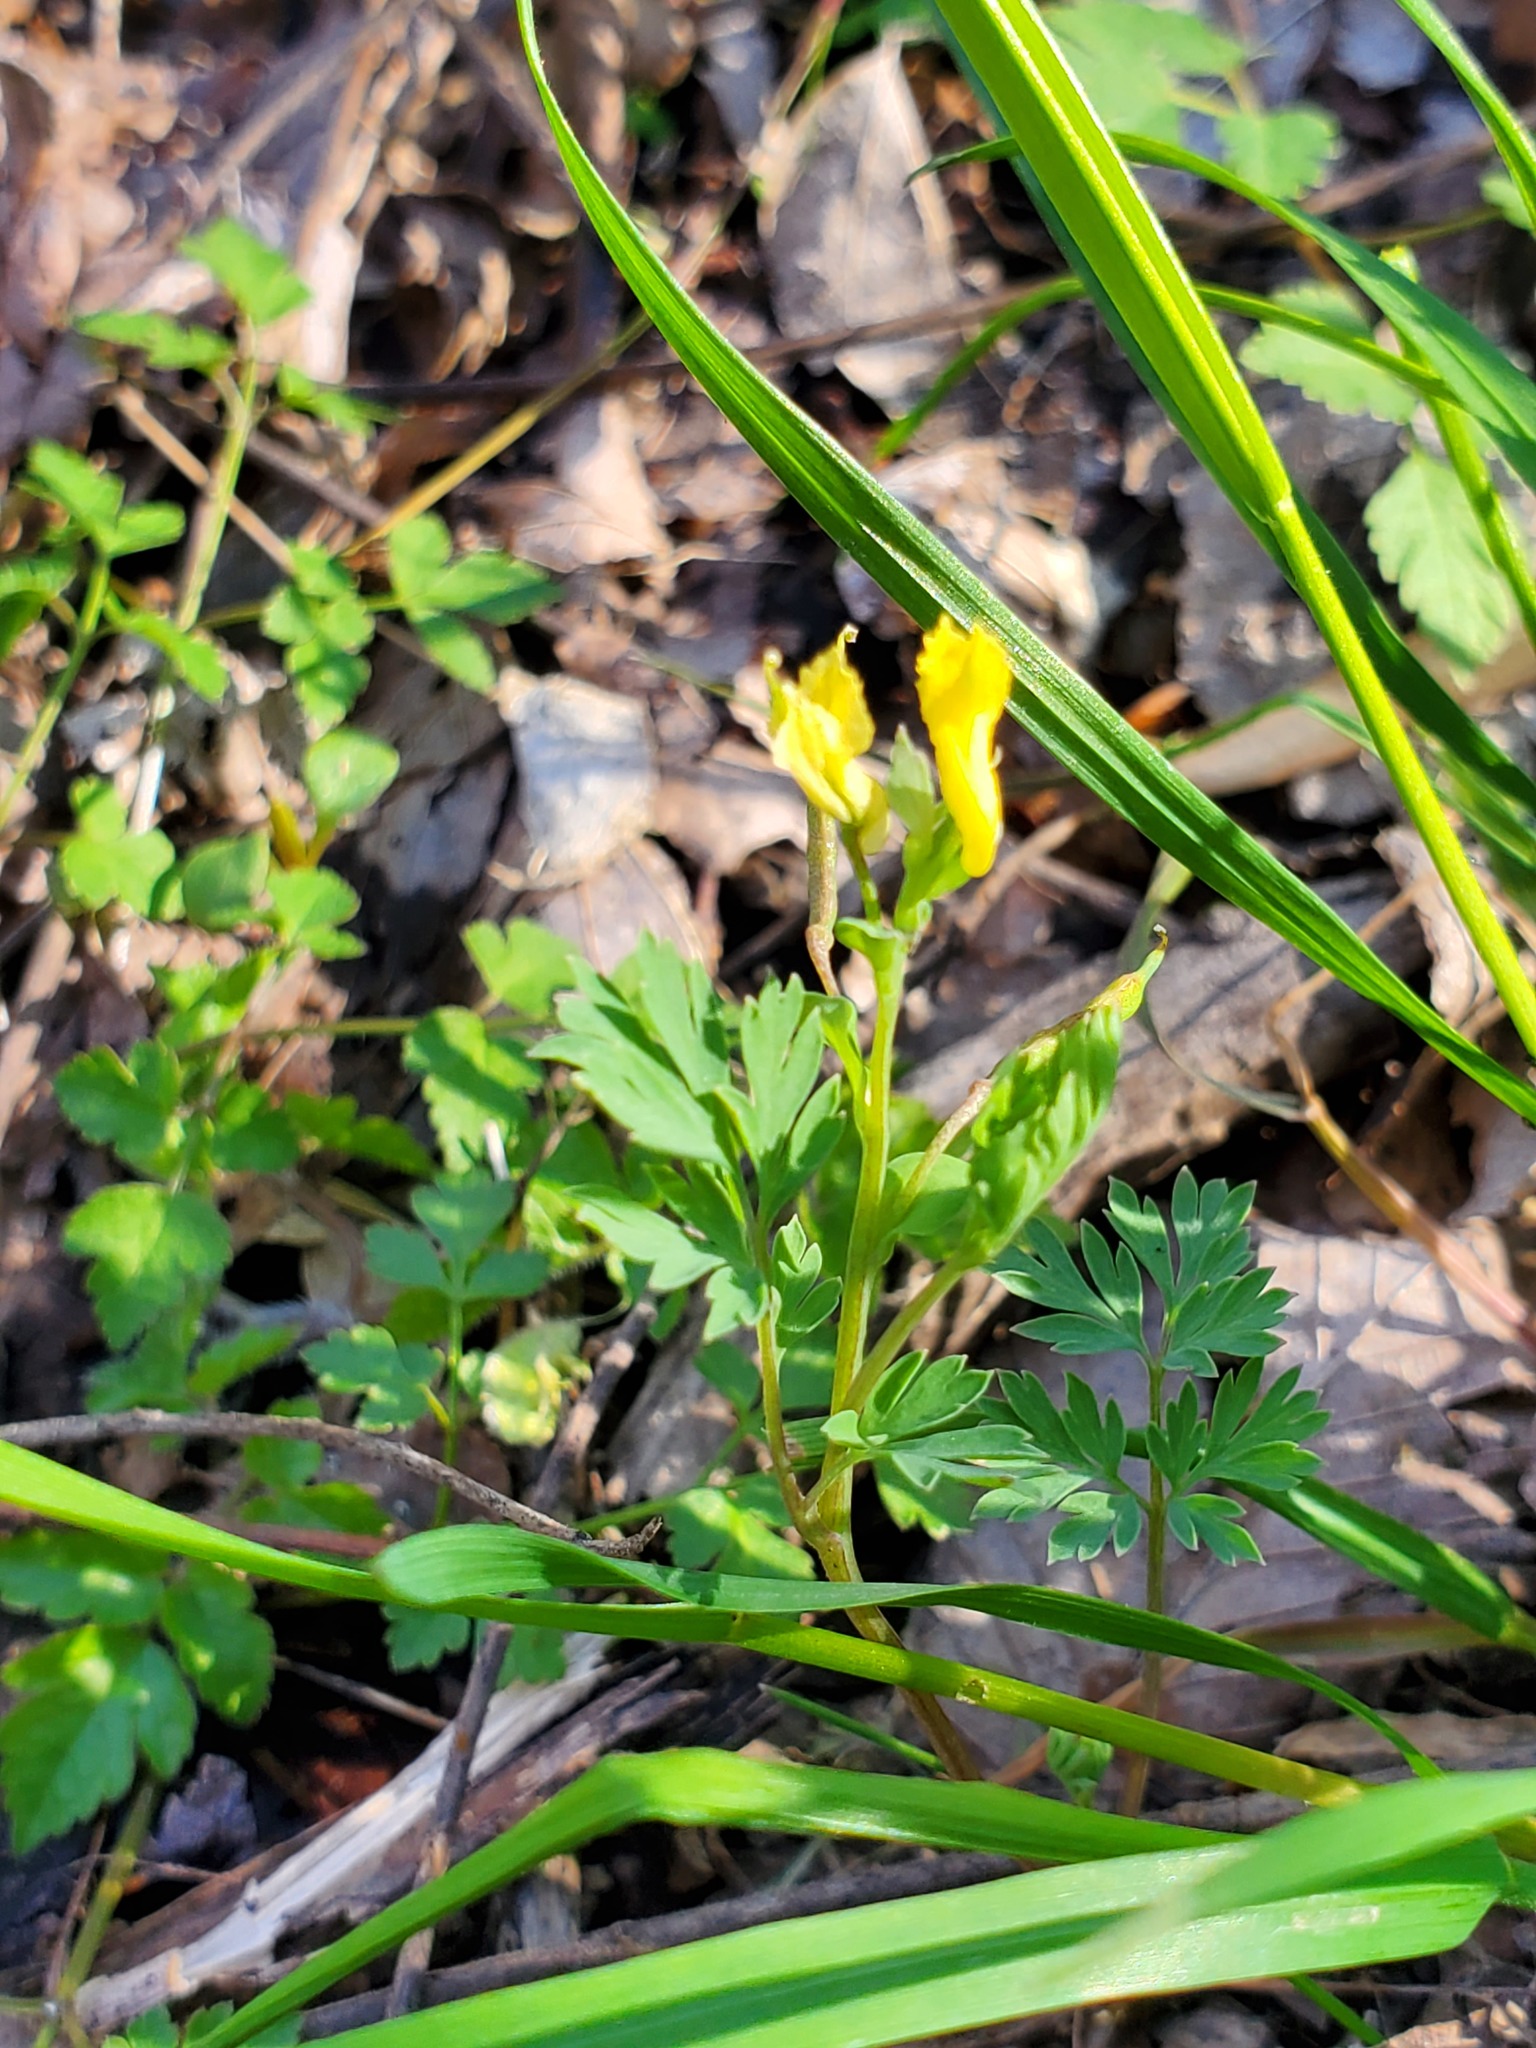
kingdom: Plantae
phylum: Tracheophyta
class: Magnoliopsida
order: Ranunculales
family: Papaveraceae
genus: Corydalis
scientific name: Corydalis flavula
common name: Yellow corydalis
